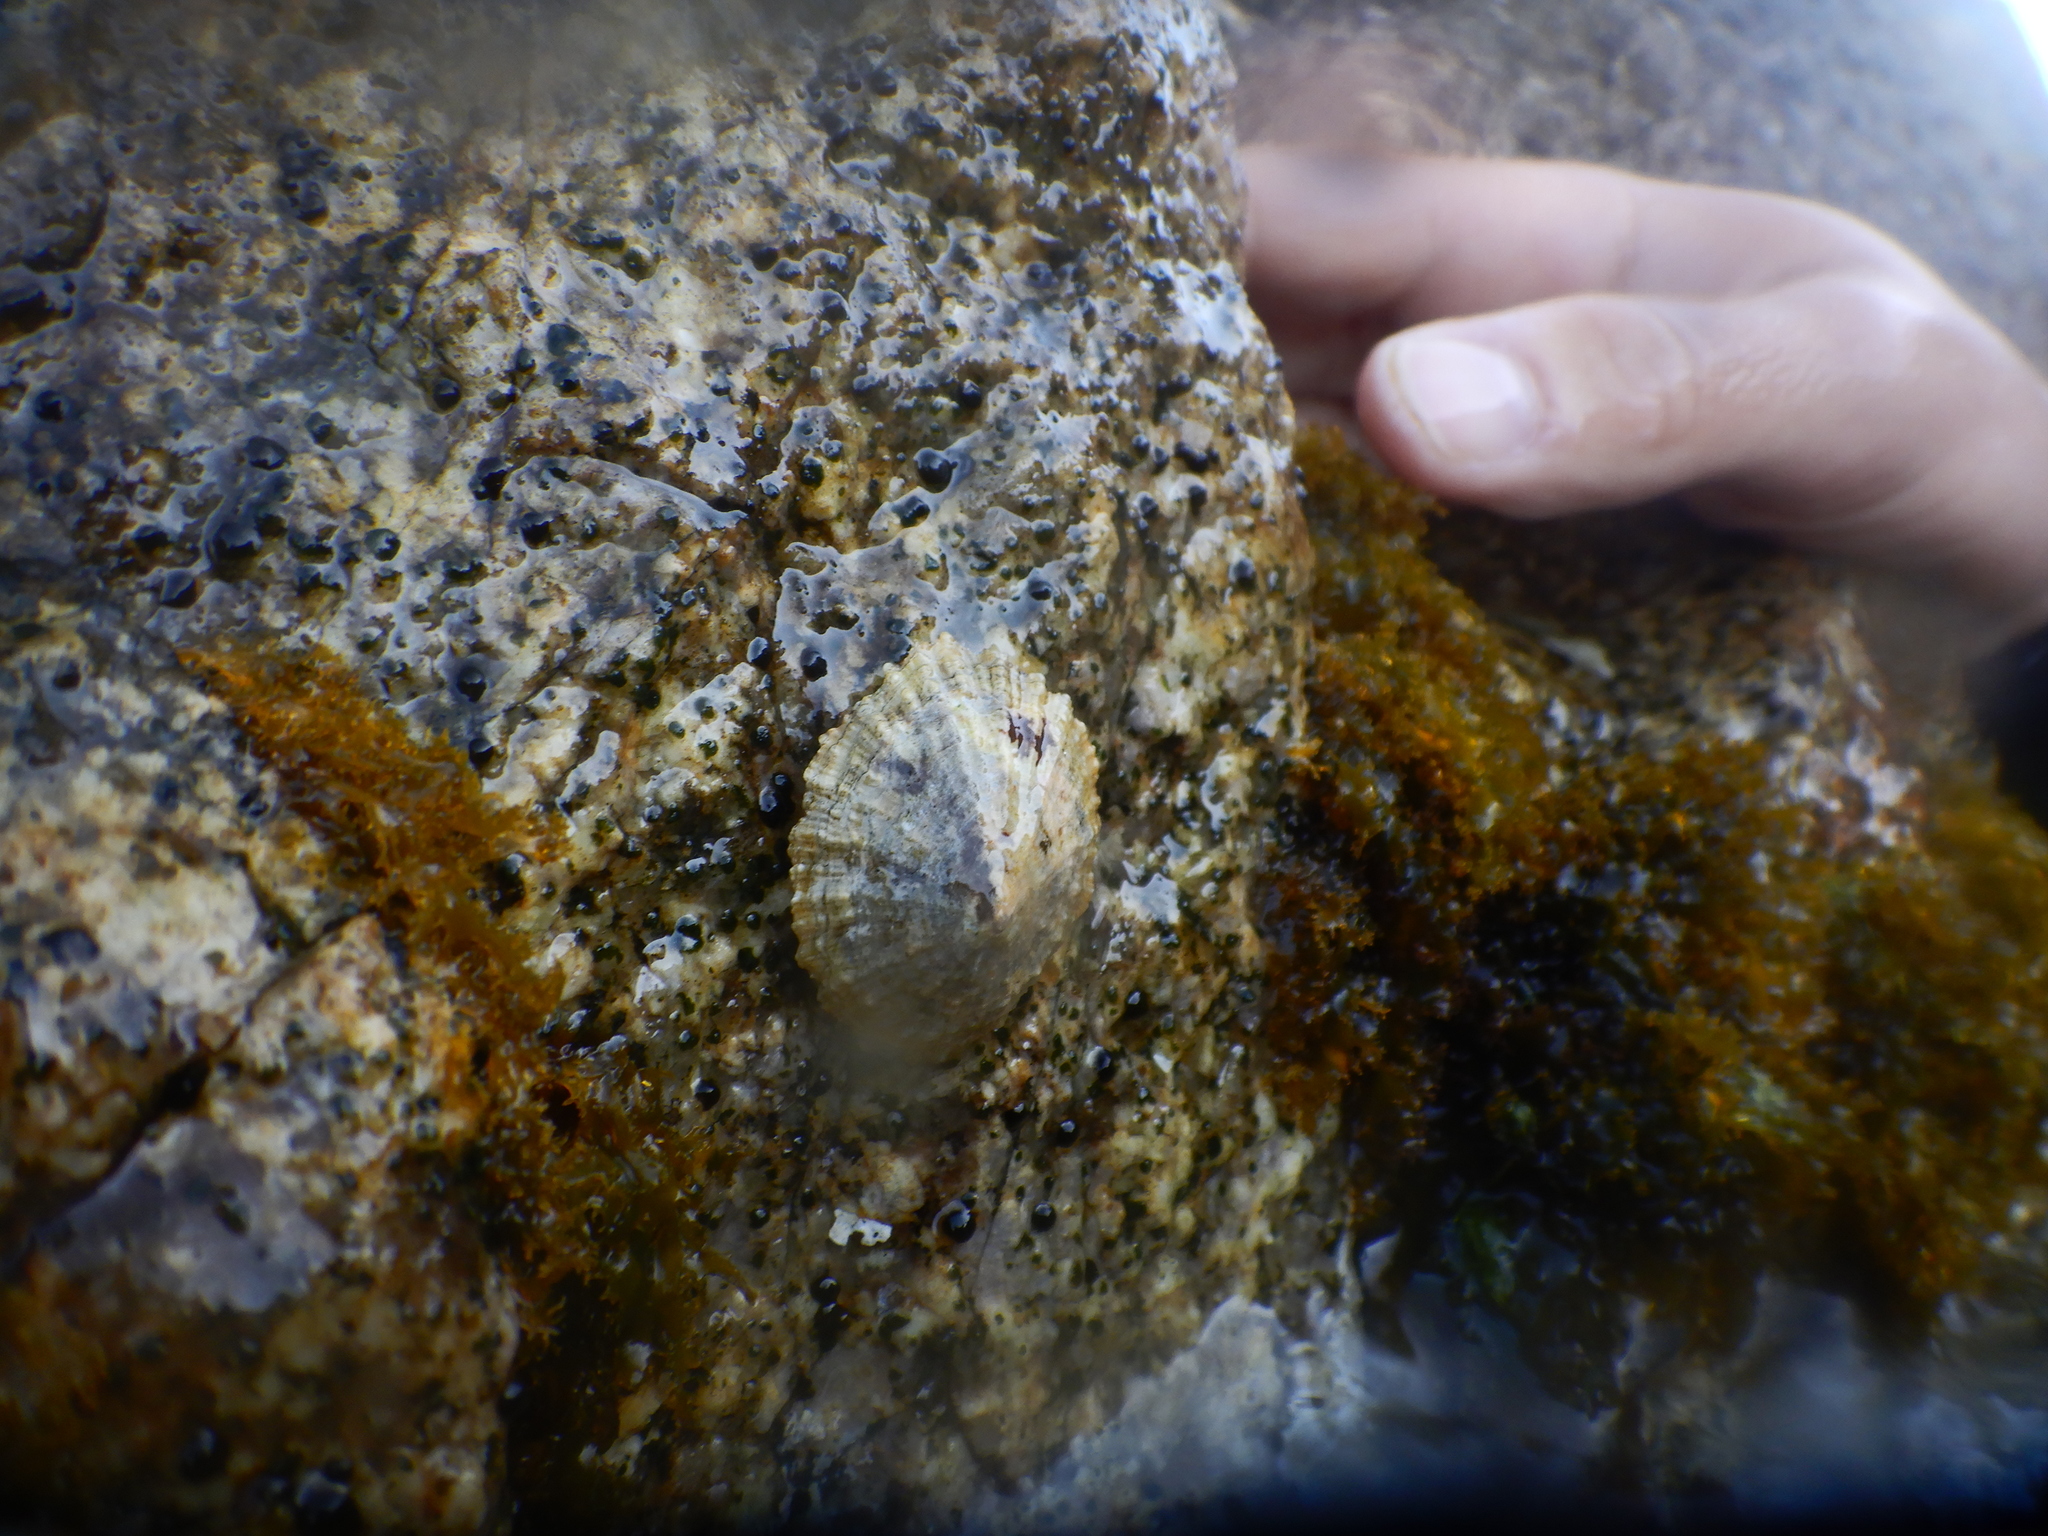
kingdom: Animalia
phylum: Mollusca
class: Gastropoda
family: Patellidae
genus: Patella
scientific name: Patella caerulea
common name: Mediterranean limpet
